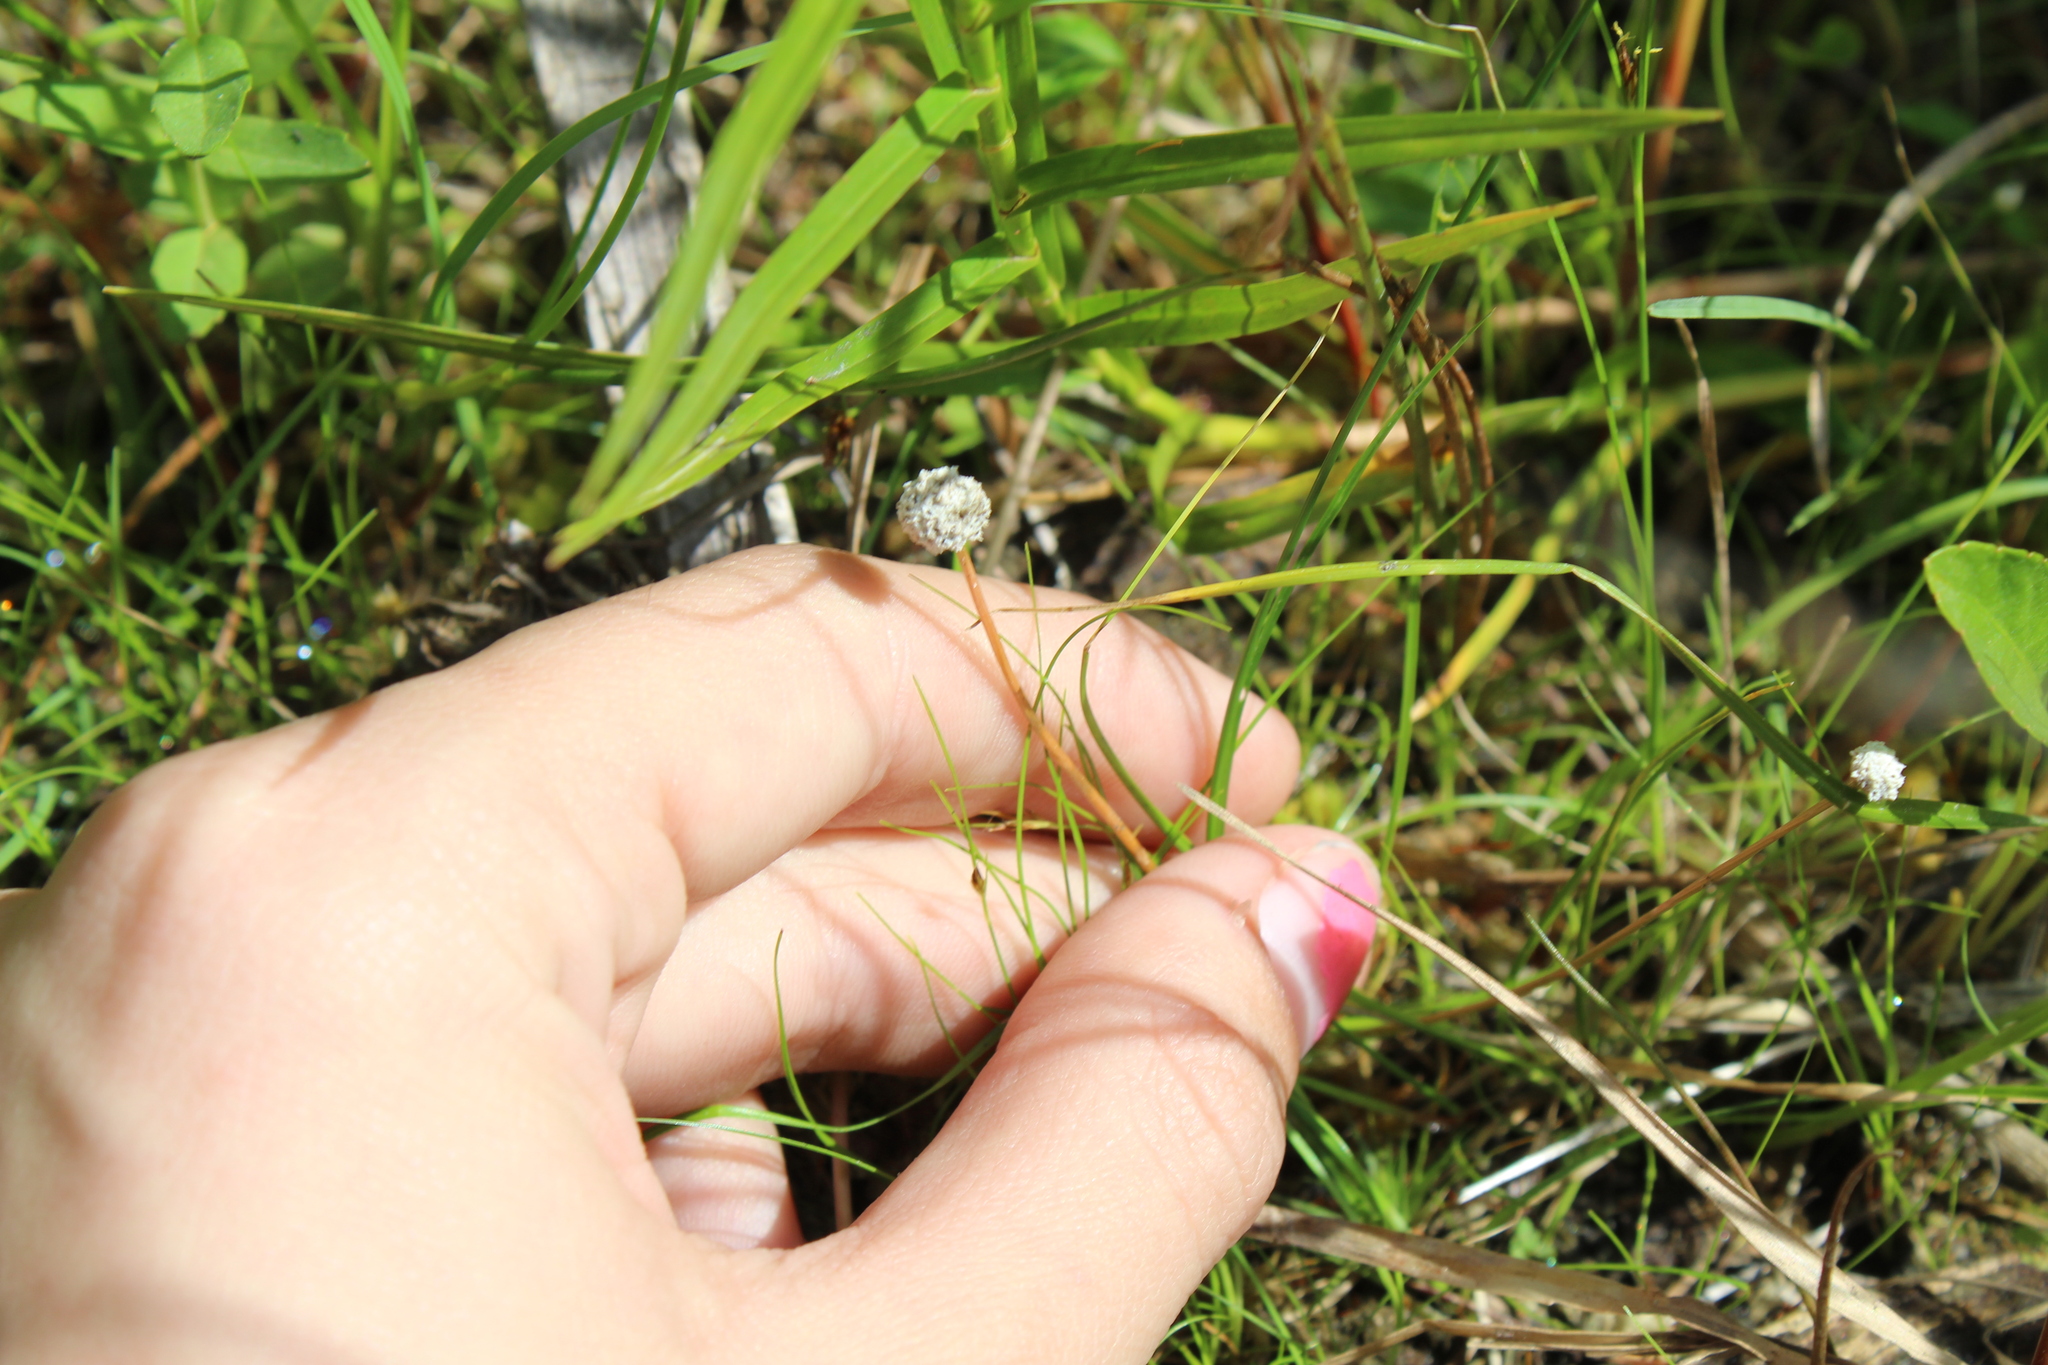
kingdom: Plantae
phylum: Tracheophyta
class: Liliopsida
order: Poales
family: Eriocaulaceae
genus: Eriocaulon
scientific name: Eriocaulon aquaticum
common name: Pipewort
